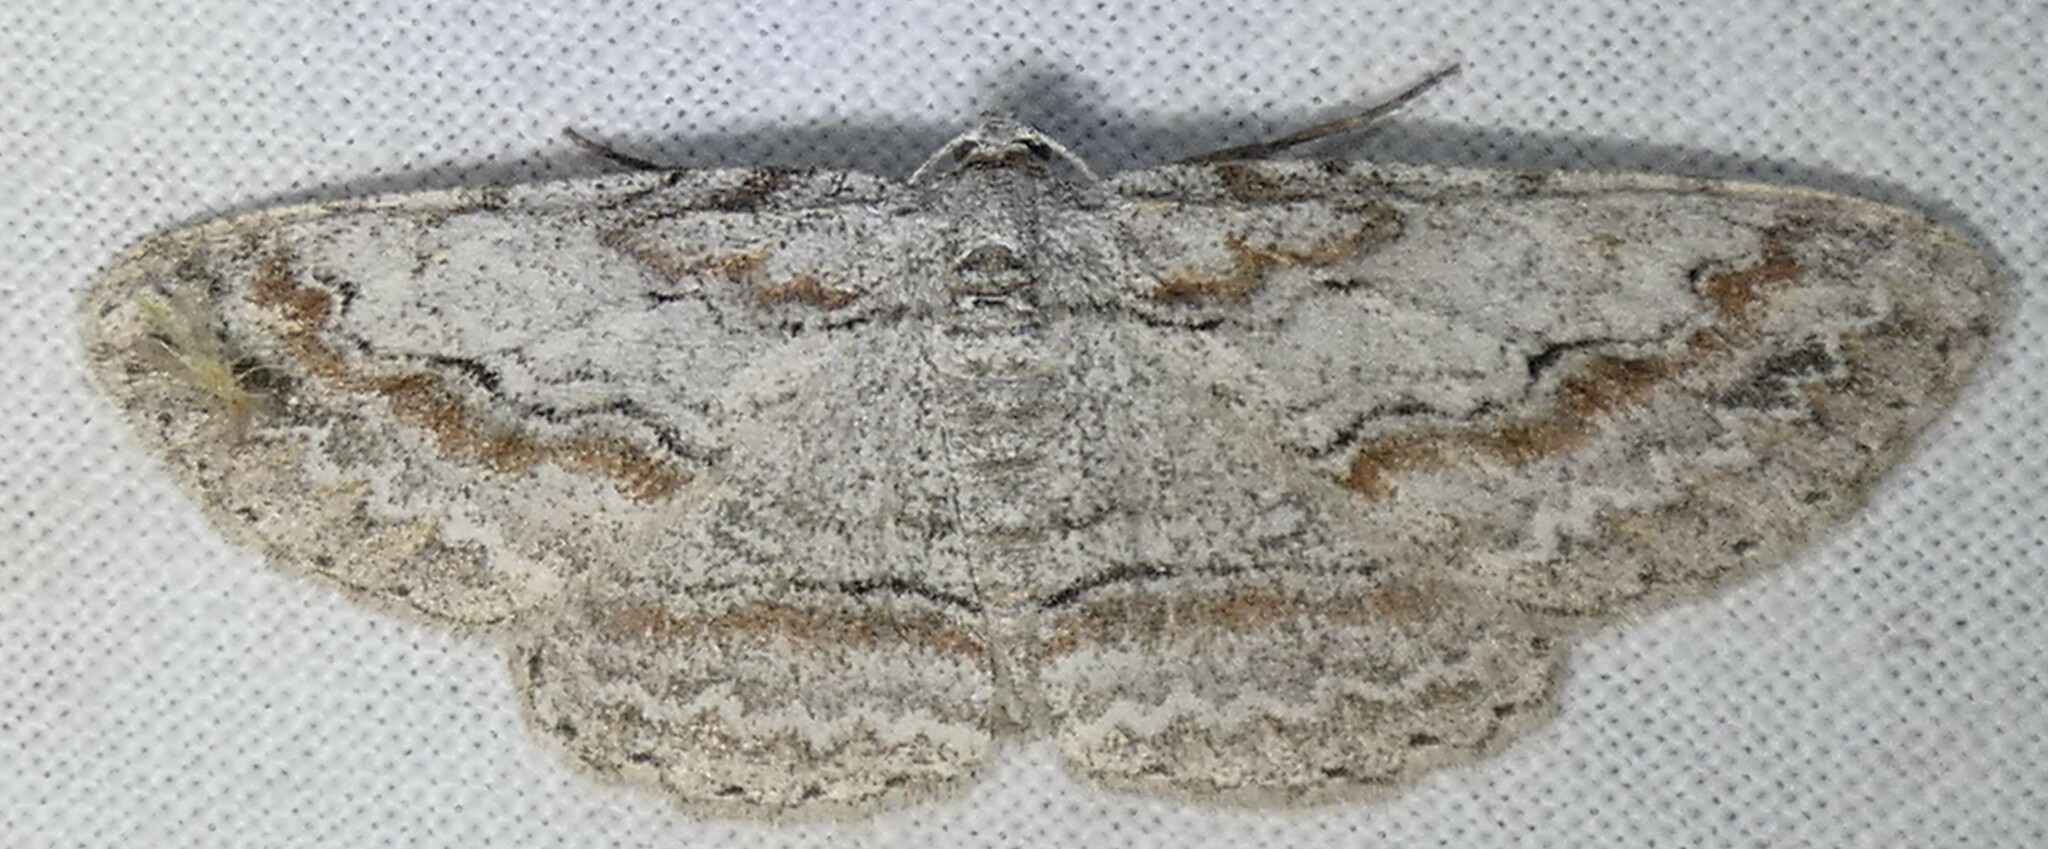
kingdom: Animalia
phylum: Arthropoda
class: Insecta
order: Lepidoptera
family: Geometridae
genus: Iridopsis
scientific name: Iridopsis defectaria
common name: Brown-shaded gray
